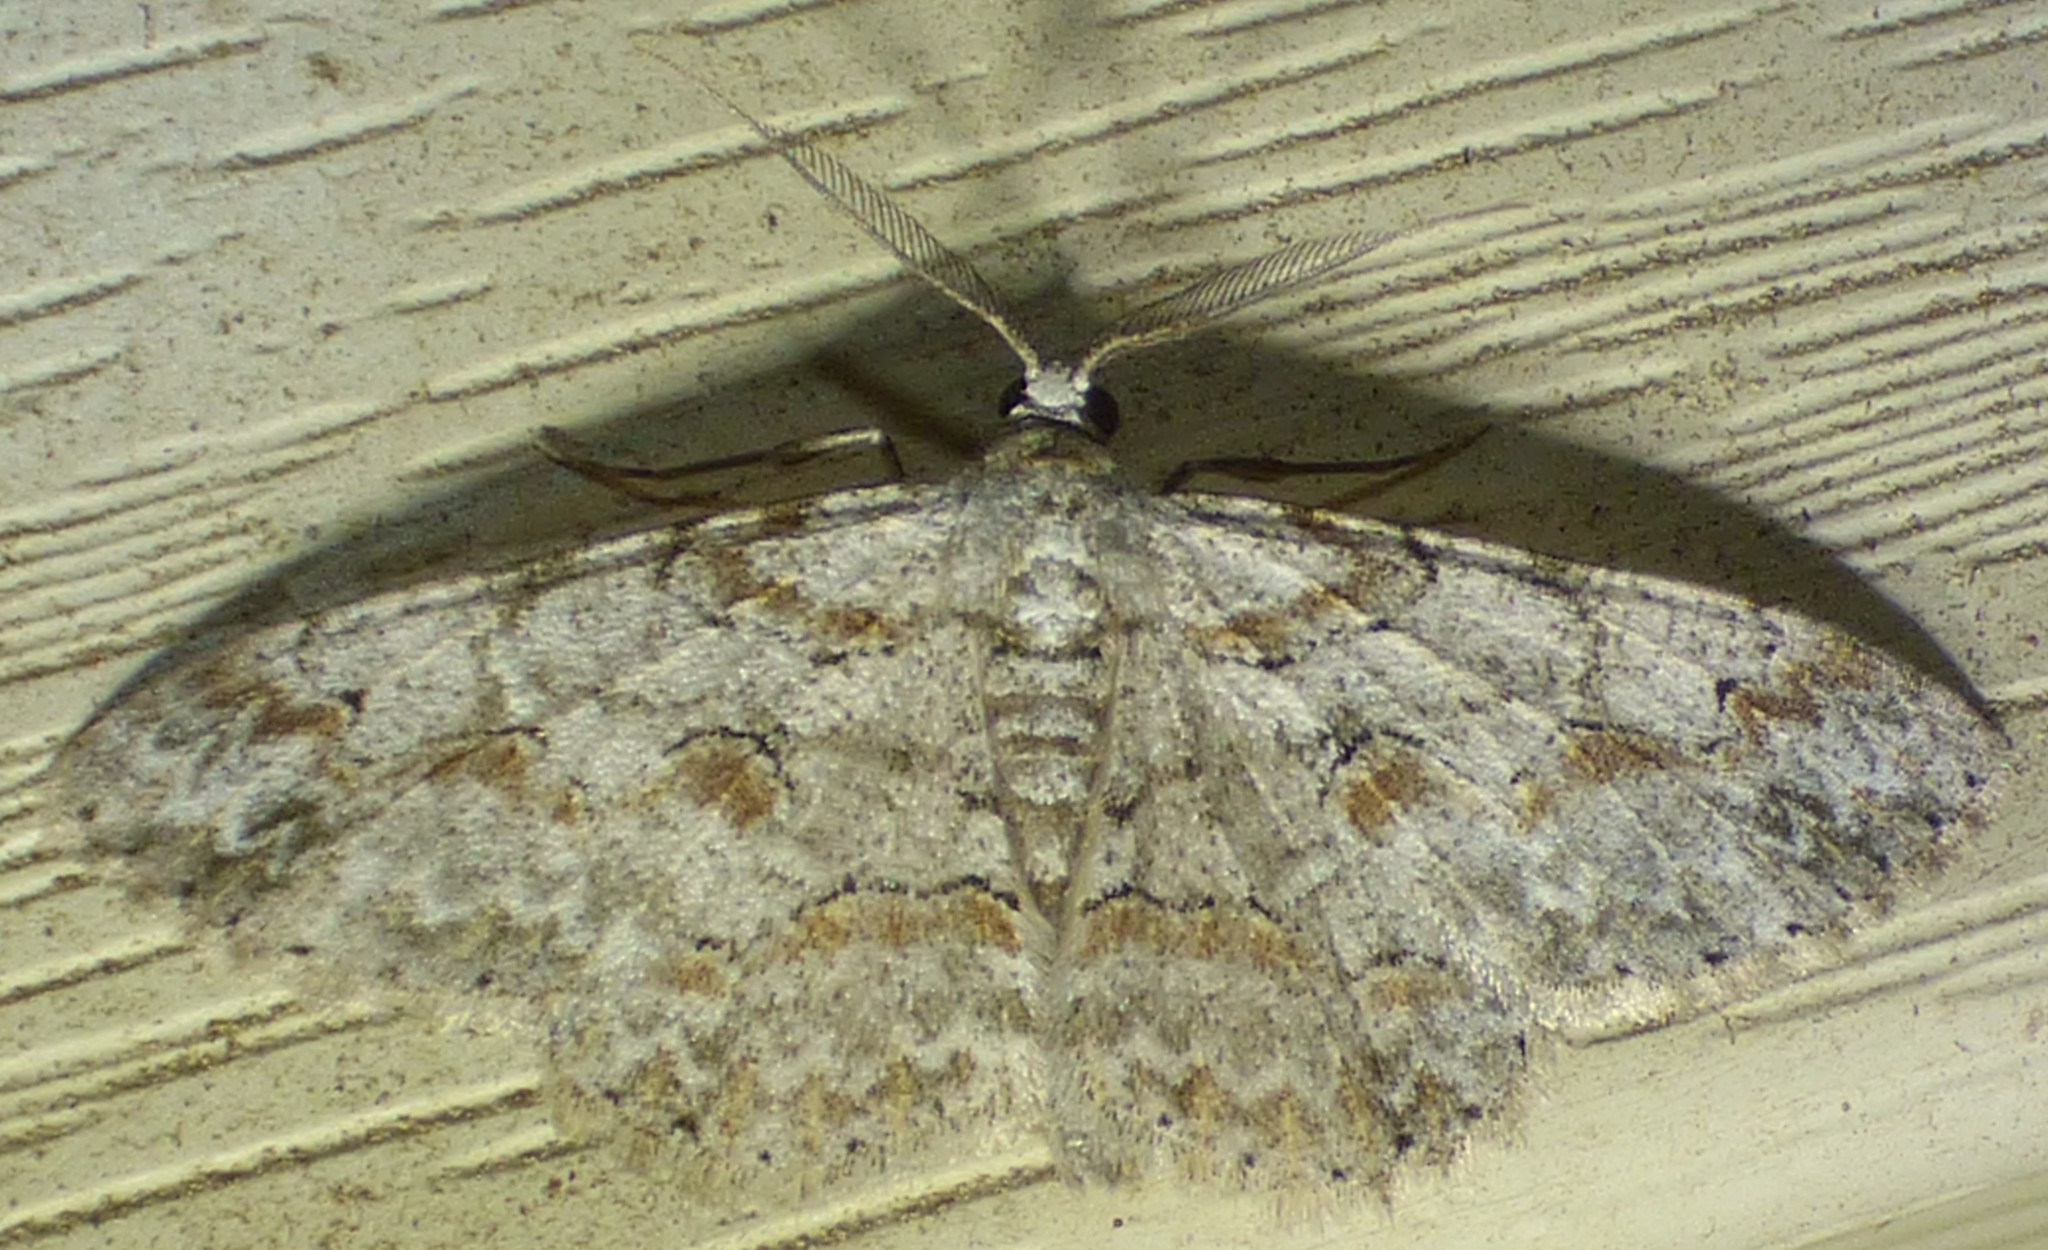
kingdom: Animalia
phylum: Arthropoda
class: Insecta
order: Lepidoptera
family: Geometridae
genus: Iridopsis
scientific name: Iridopsis defectaria
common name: Brown-shaded gray
